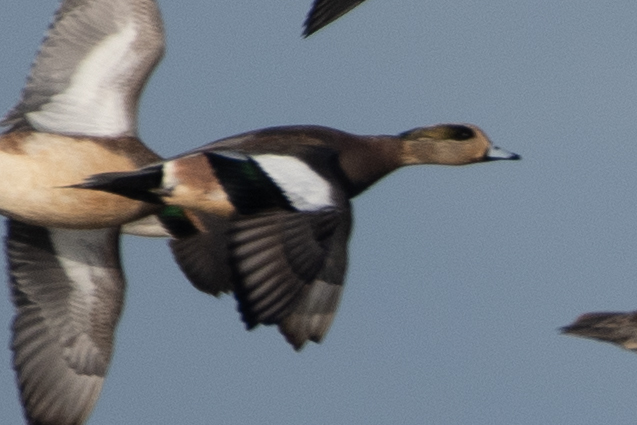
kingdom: Animalia
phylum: Chordata
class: Aves
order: Anseriformes
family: Anatidae
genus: Mareca
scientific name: Mareca americana
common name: American wigeon
